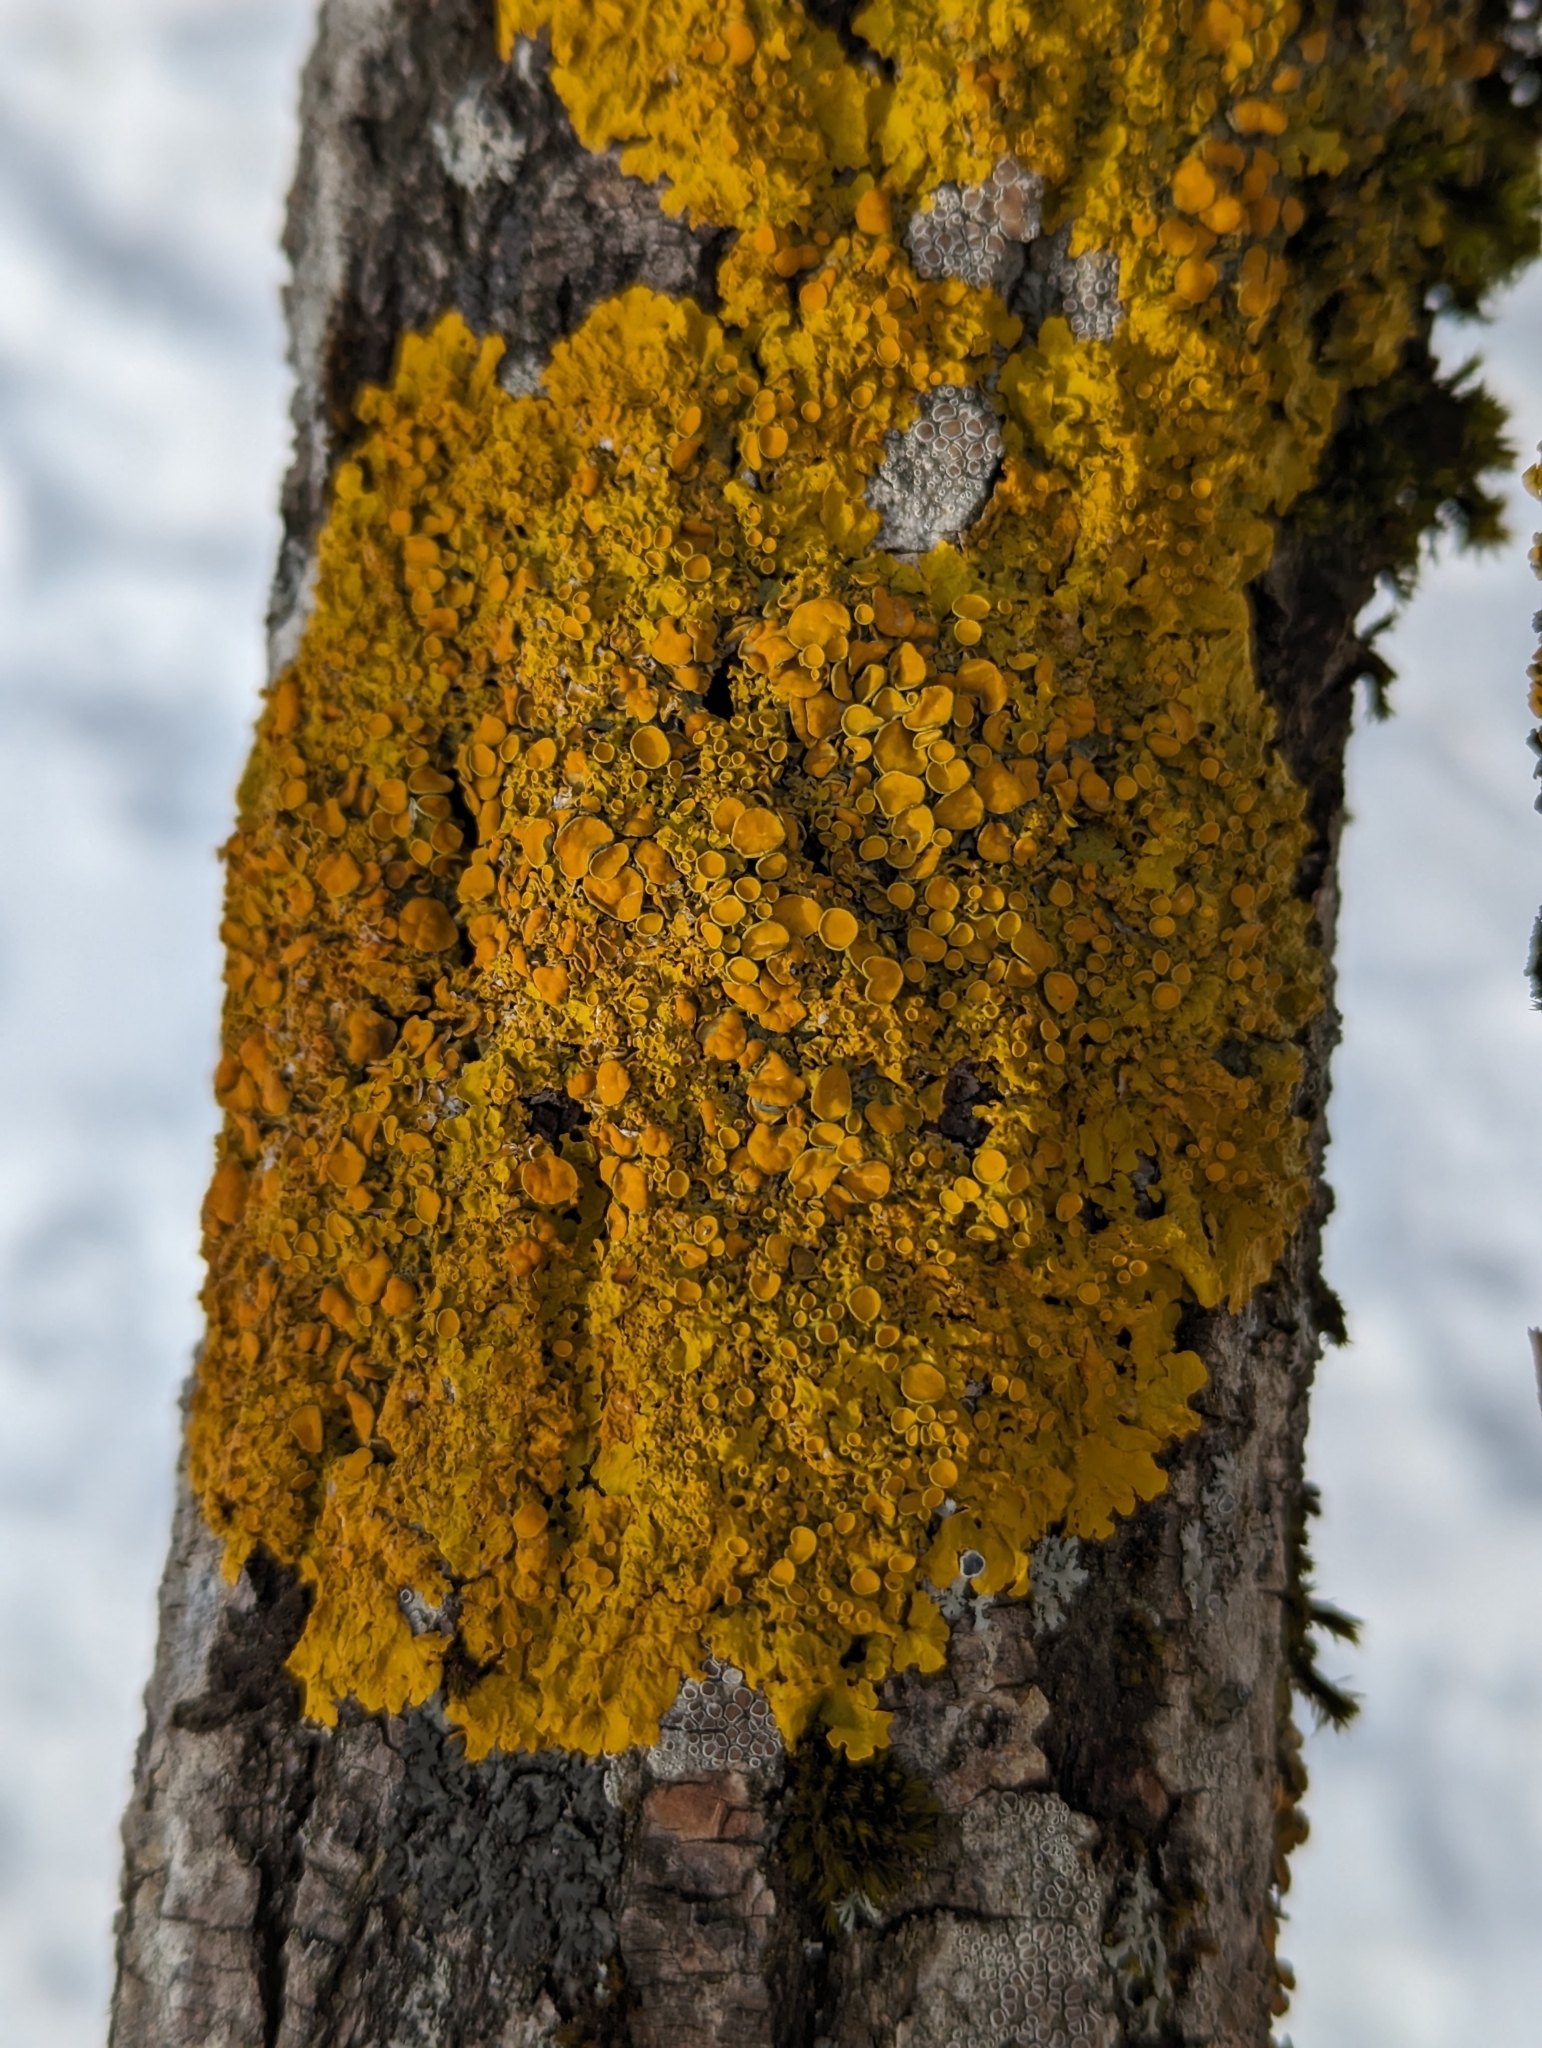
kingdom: Fungi
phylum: Ascomycota
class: Lecanoromycetes
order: Teloschistales
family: Teloschistaceae
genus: Xanthoria
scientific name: Xanthoria parietina
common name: Common orange lichen
